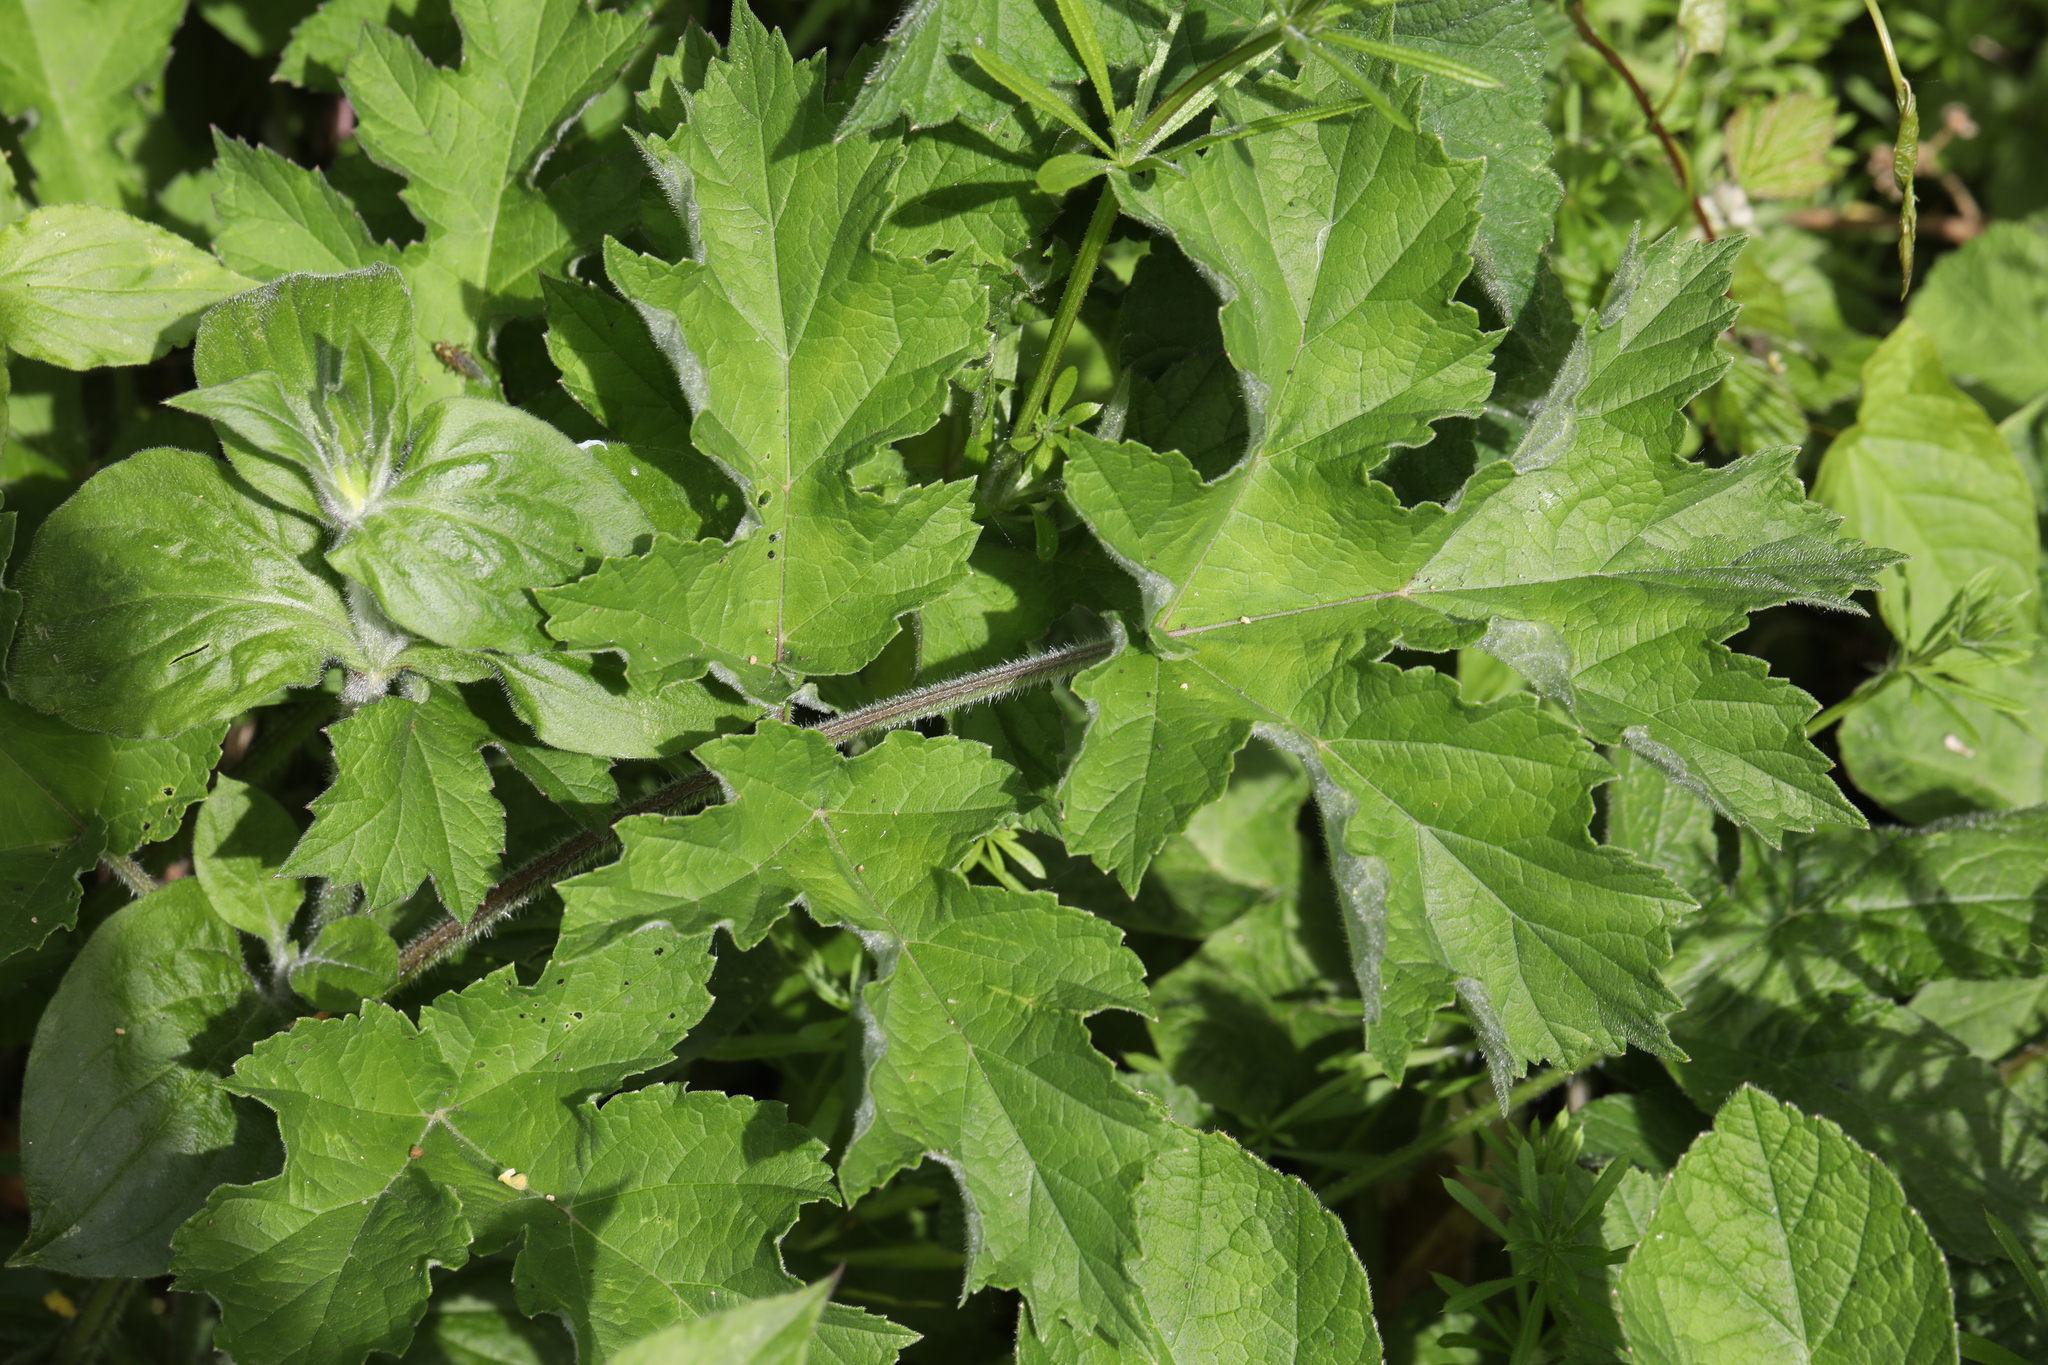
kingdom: Plantae
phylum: Tracheophyta
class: Magnoliopsida
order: Apiales
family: Apiaceae
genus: Heracleum
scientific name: Heracleum sphondylium
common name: Hogweed
